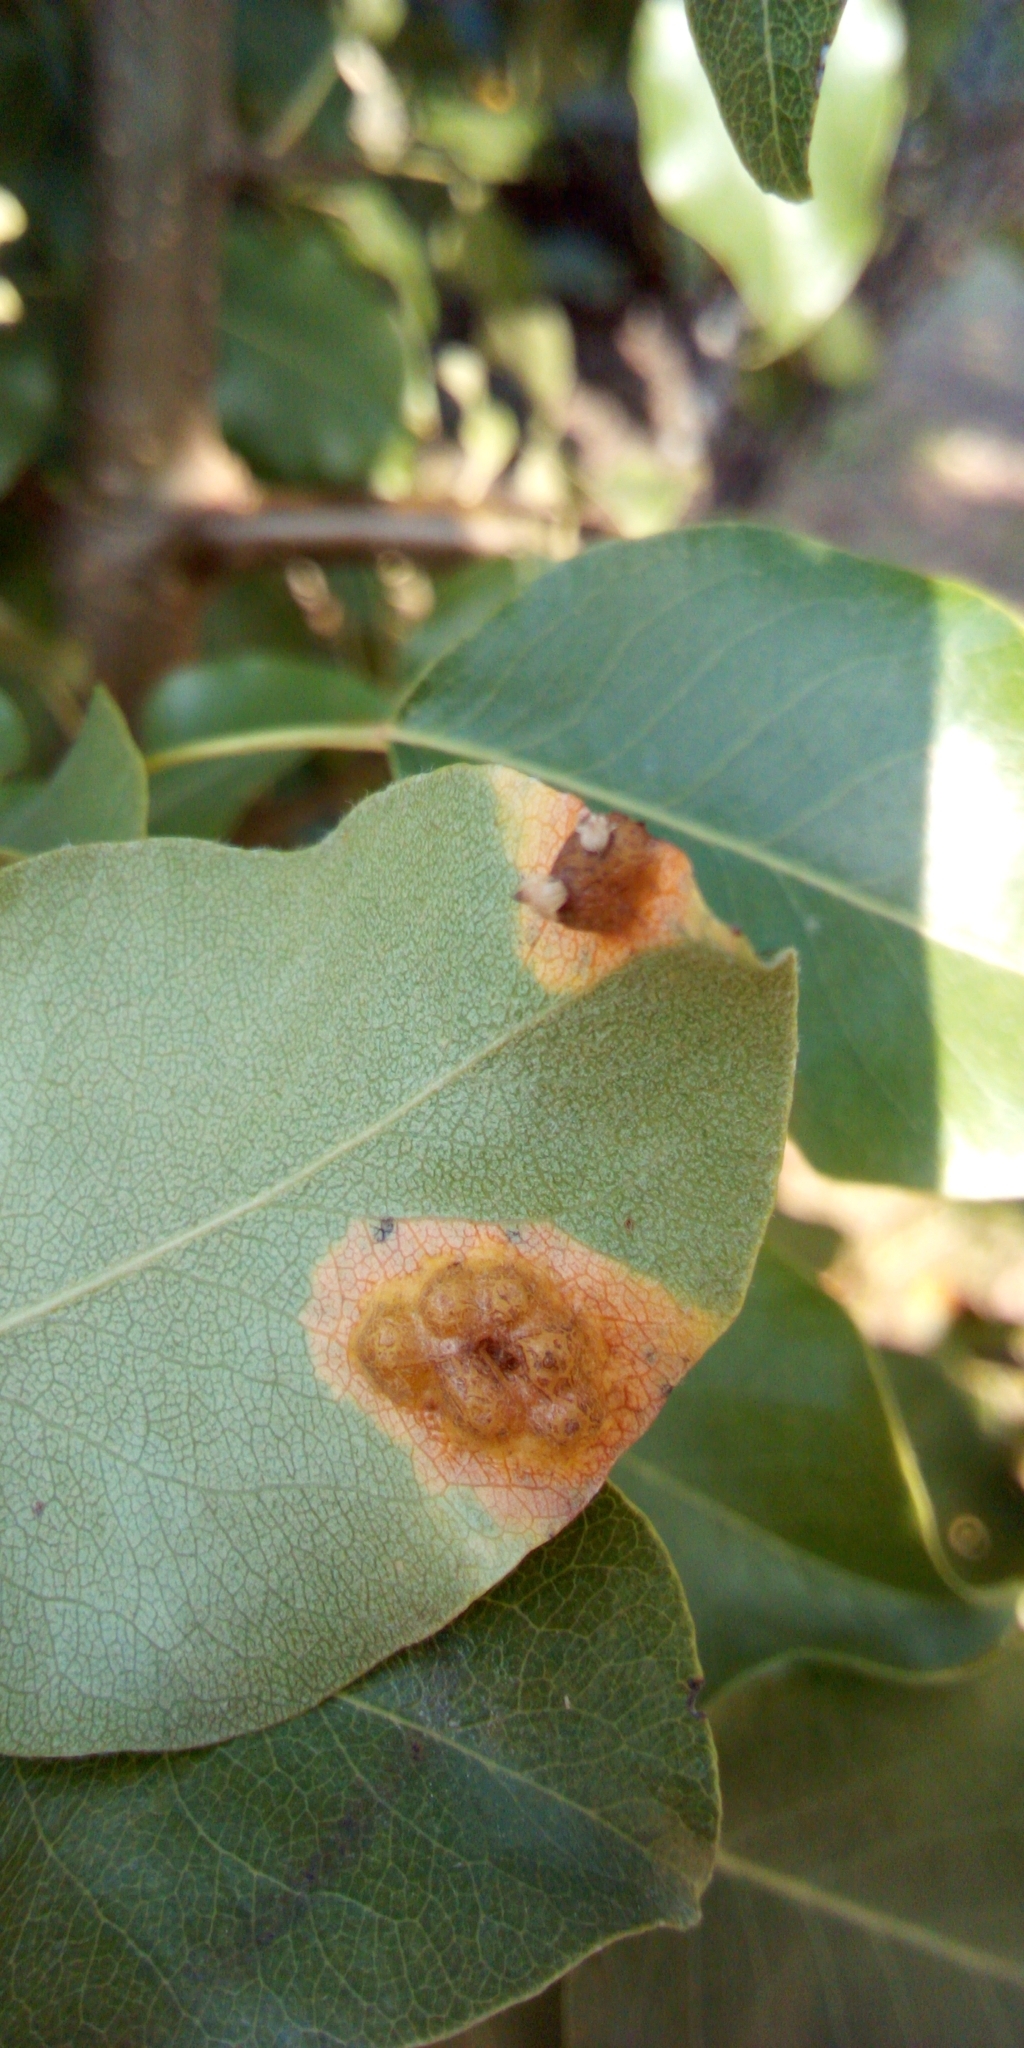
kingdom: Fungi
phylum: Basidiomycota
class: Pucciniomycetes
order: Pucciniales
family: Gymnosporangiaceae
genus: Gymnosporangium
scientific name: Gymnosporangium sabinae
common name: Pear trellis rust fungus
